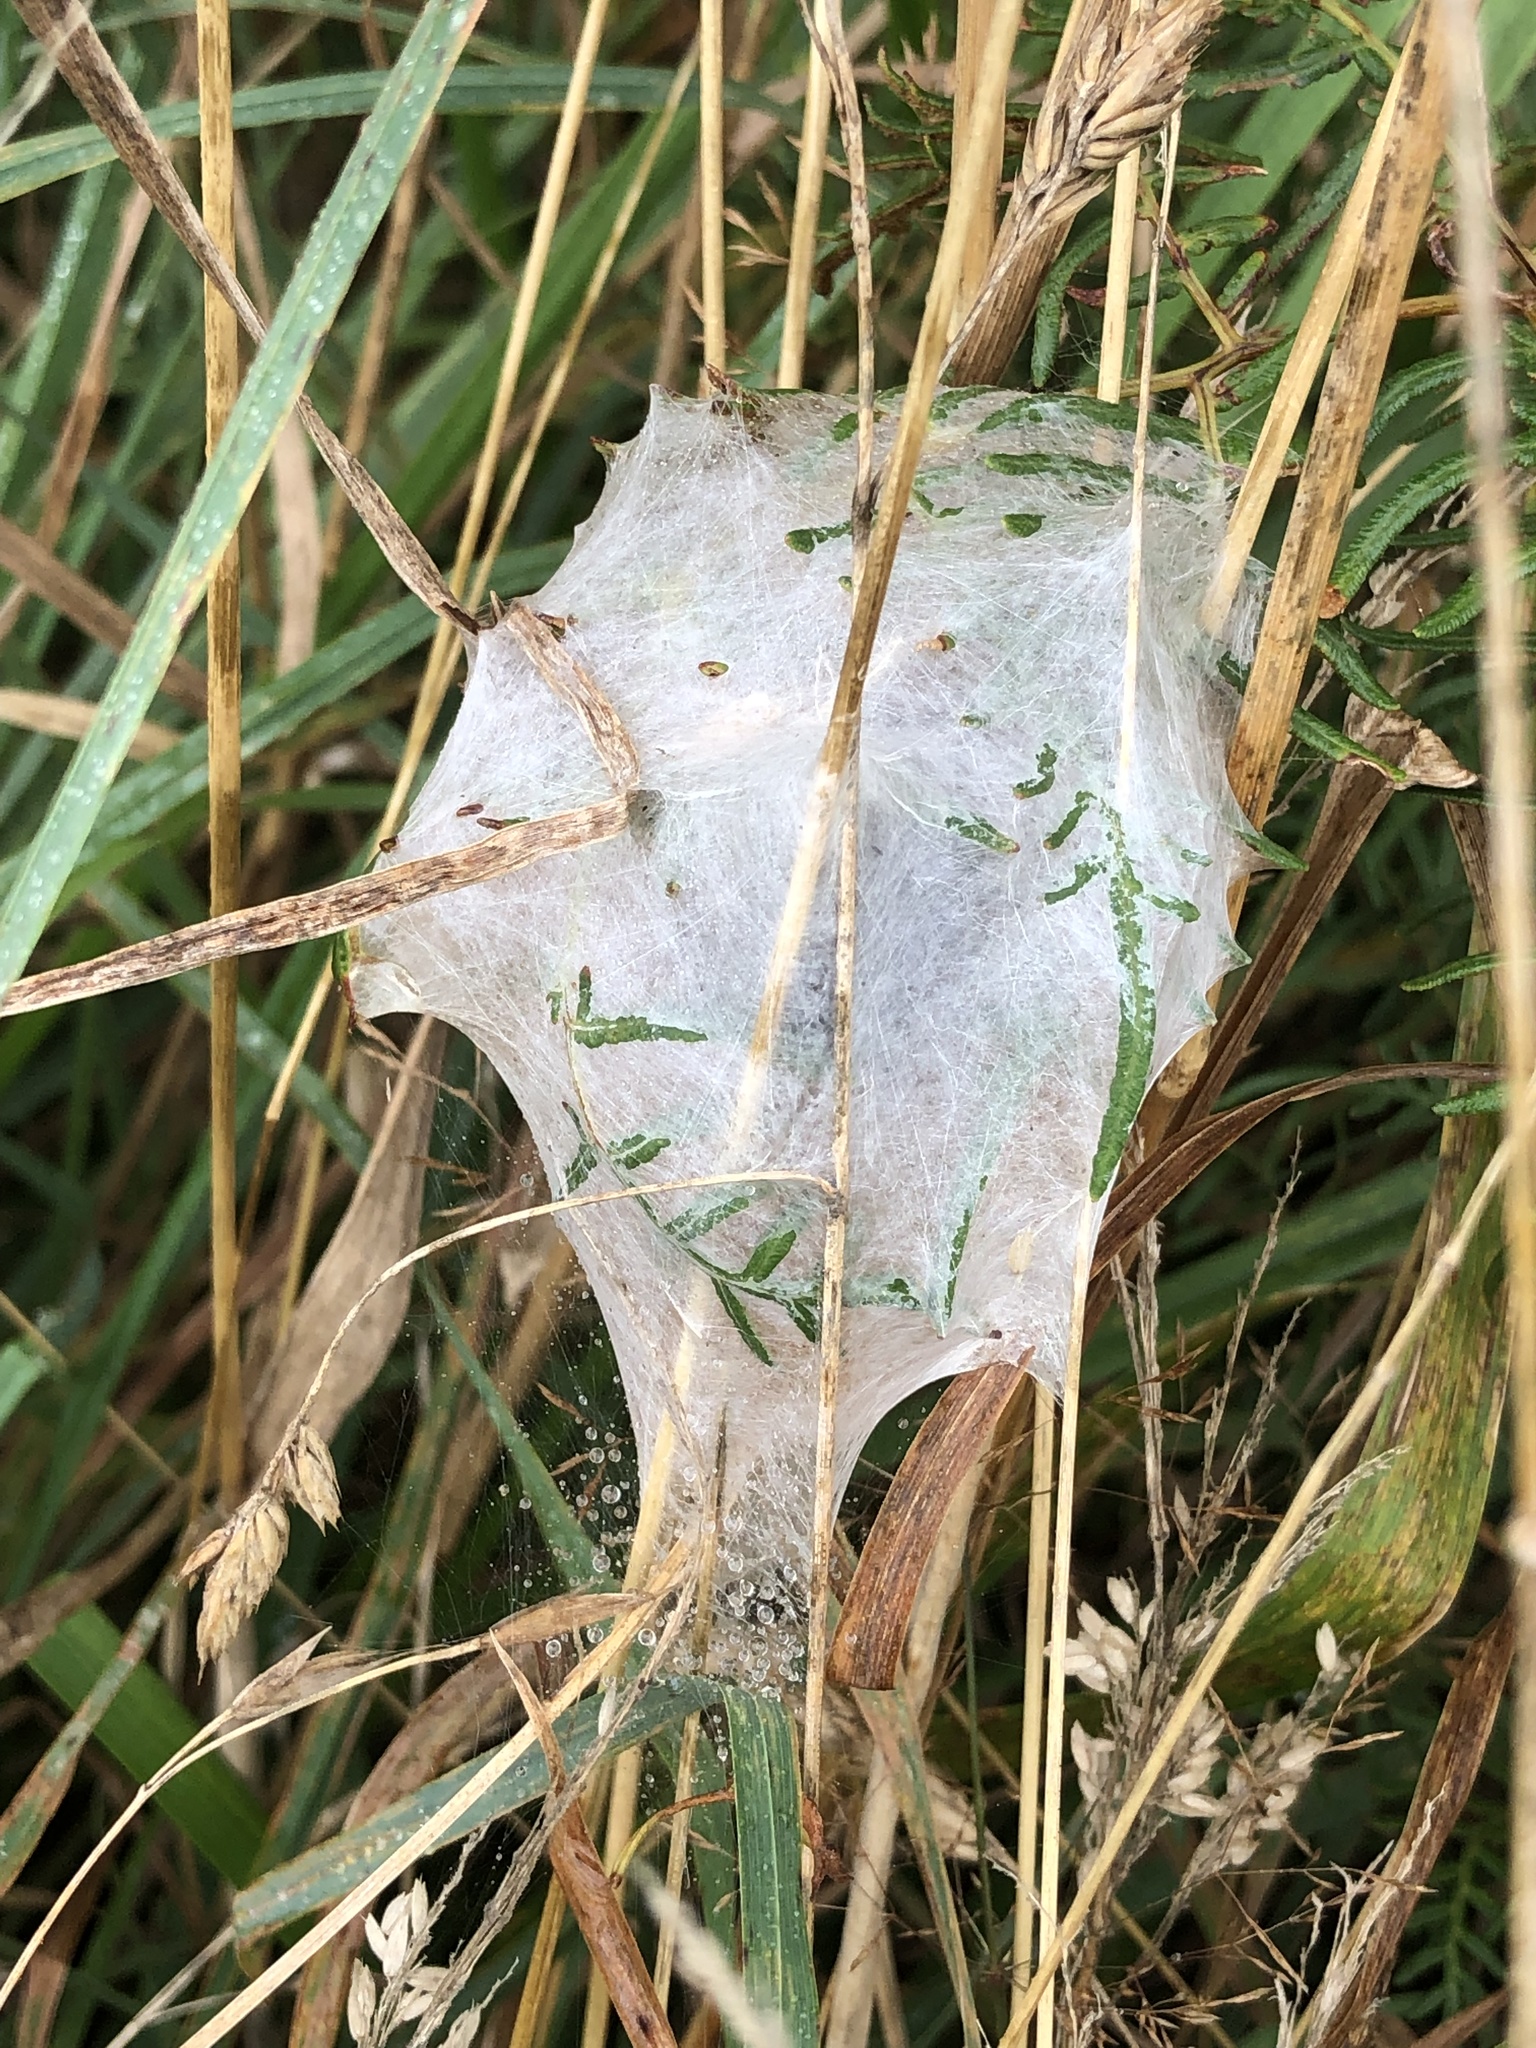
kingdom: Animalia
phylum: Arthropoda
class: Arachnida
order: Araneae
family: Pisauridae
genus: Dolomedes
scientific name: Dolomedes minor
